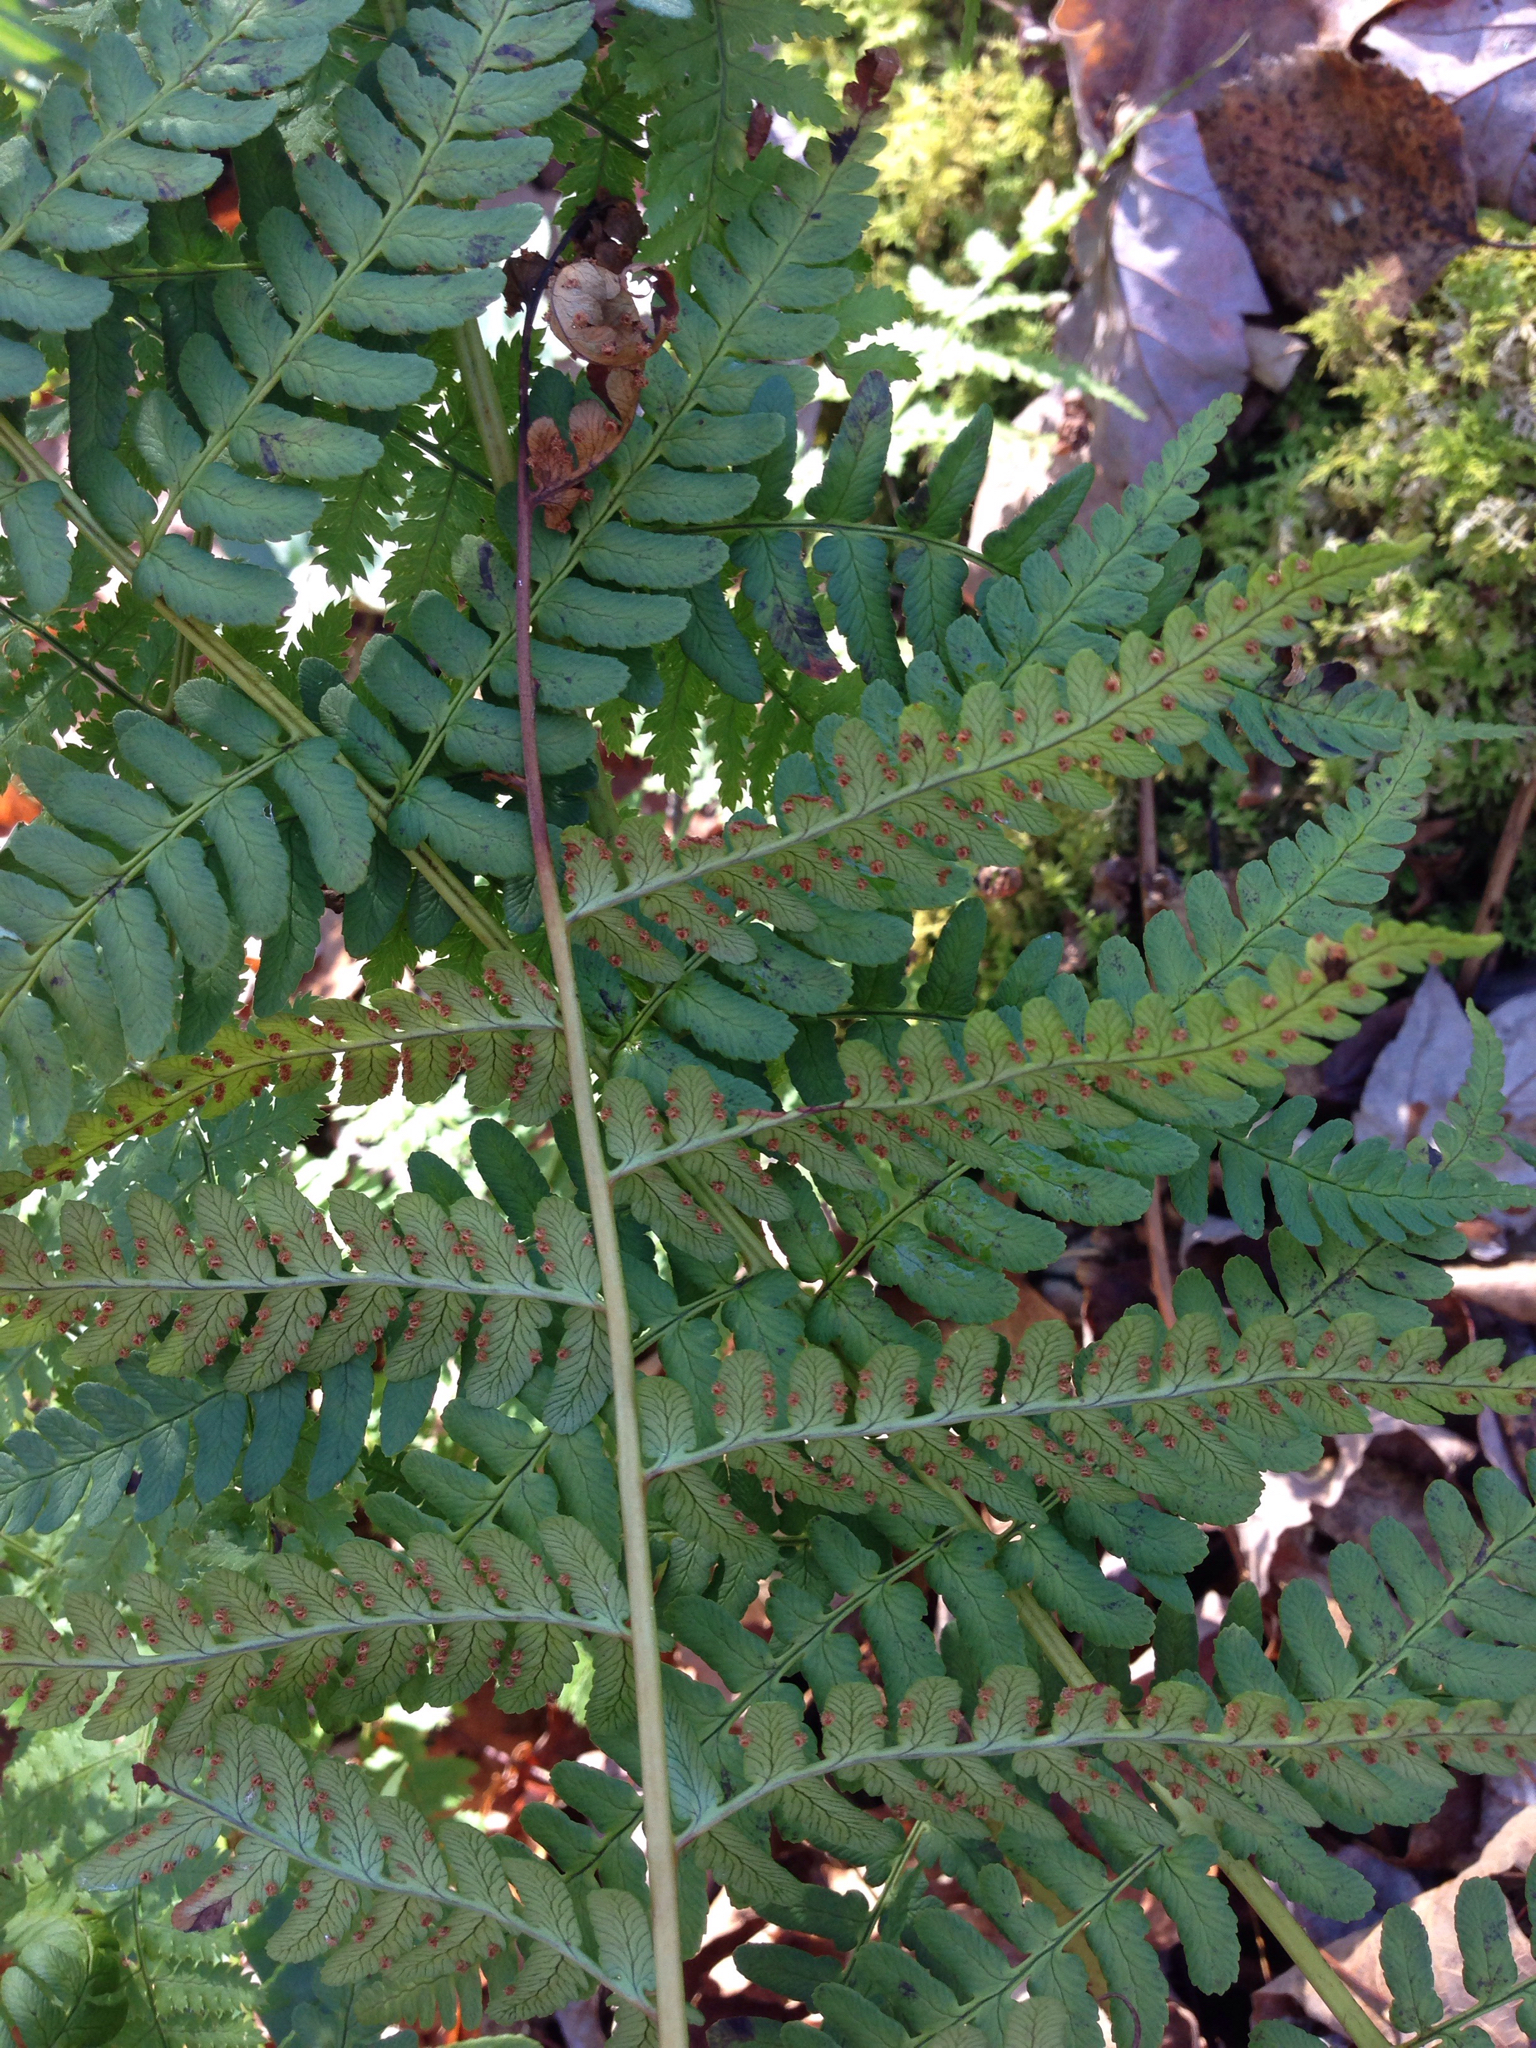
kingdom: Plantae
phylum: Tracheophyta
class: Polypodiopsida
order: Polypodiales
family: Dryopteridaceae
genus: Dryopteris
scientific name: Dryopteris marginalis
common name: Marginal wood fern
